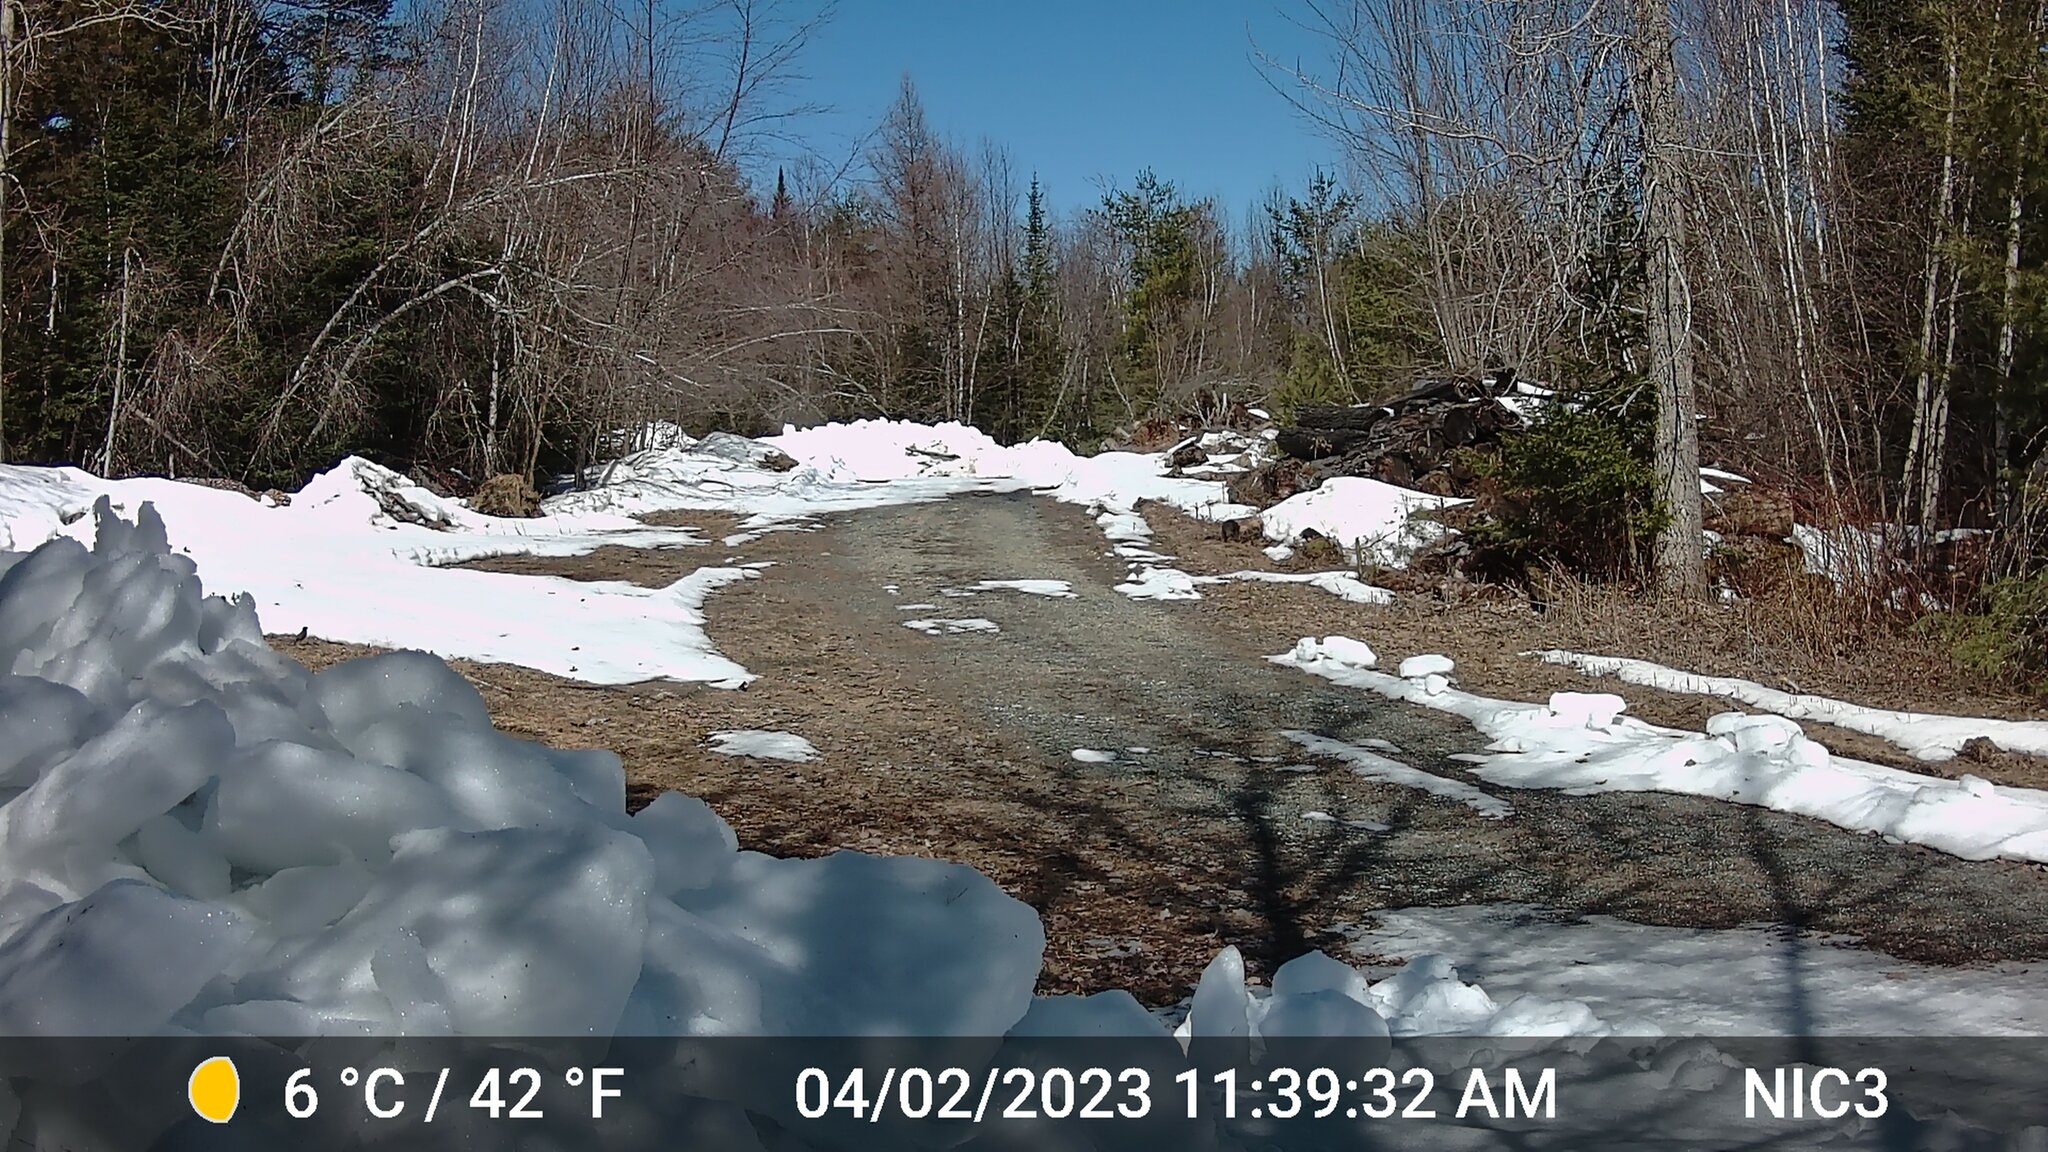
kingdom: Animalia
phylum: Chordata
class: Aves
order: Passeriformes
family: Turdidae
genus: Turdus
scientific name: Turdus migratorius
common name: American robin
